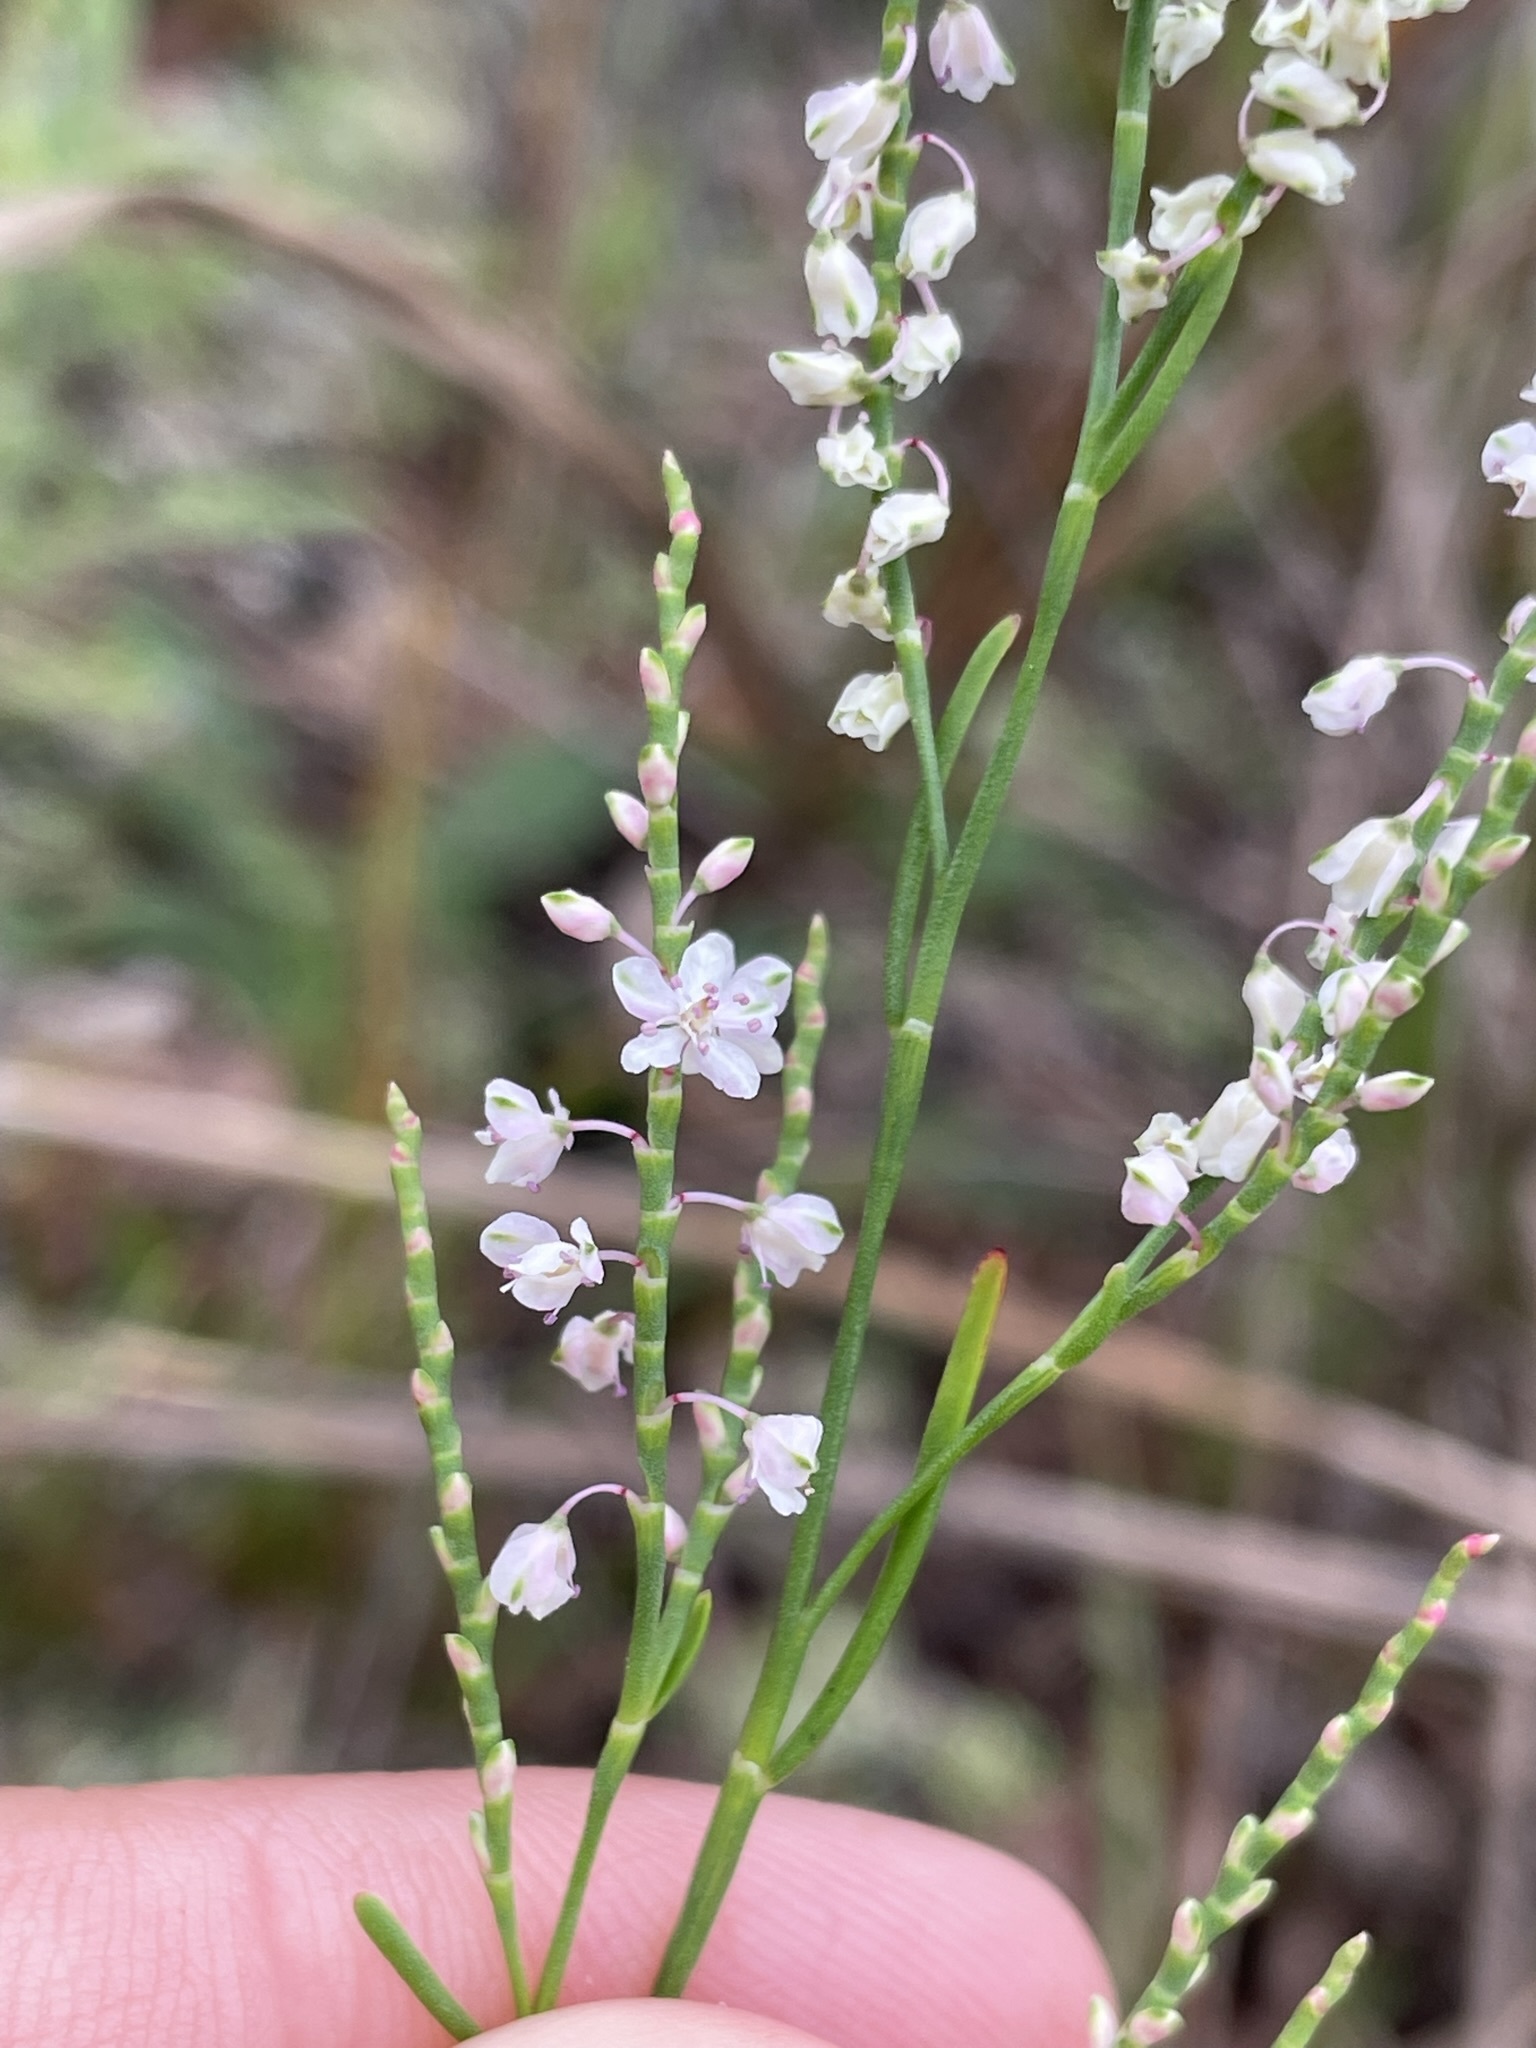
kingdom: Plantae
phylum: Tracheophyta
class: Magnoliopsida
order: Caryophyllales
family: Polygonaceae
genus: Polygonella
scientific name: Polygonella articulata
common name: Coastal jointweed
